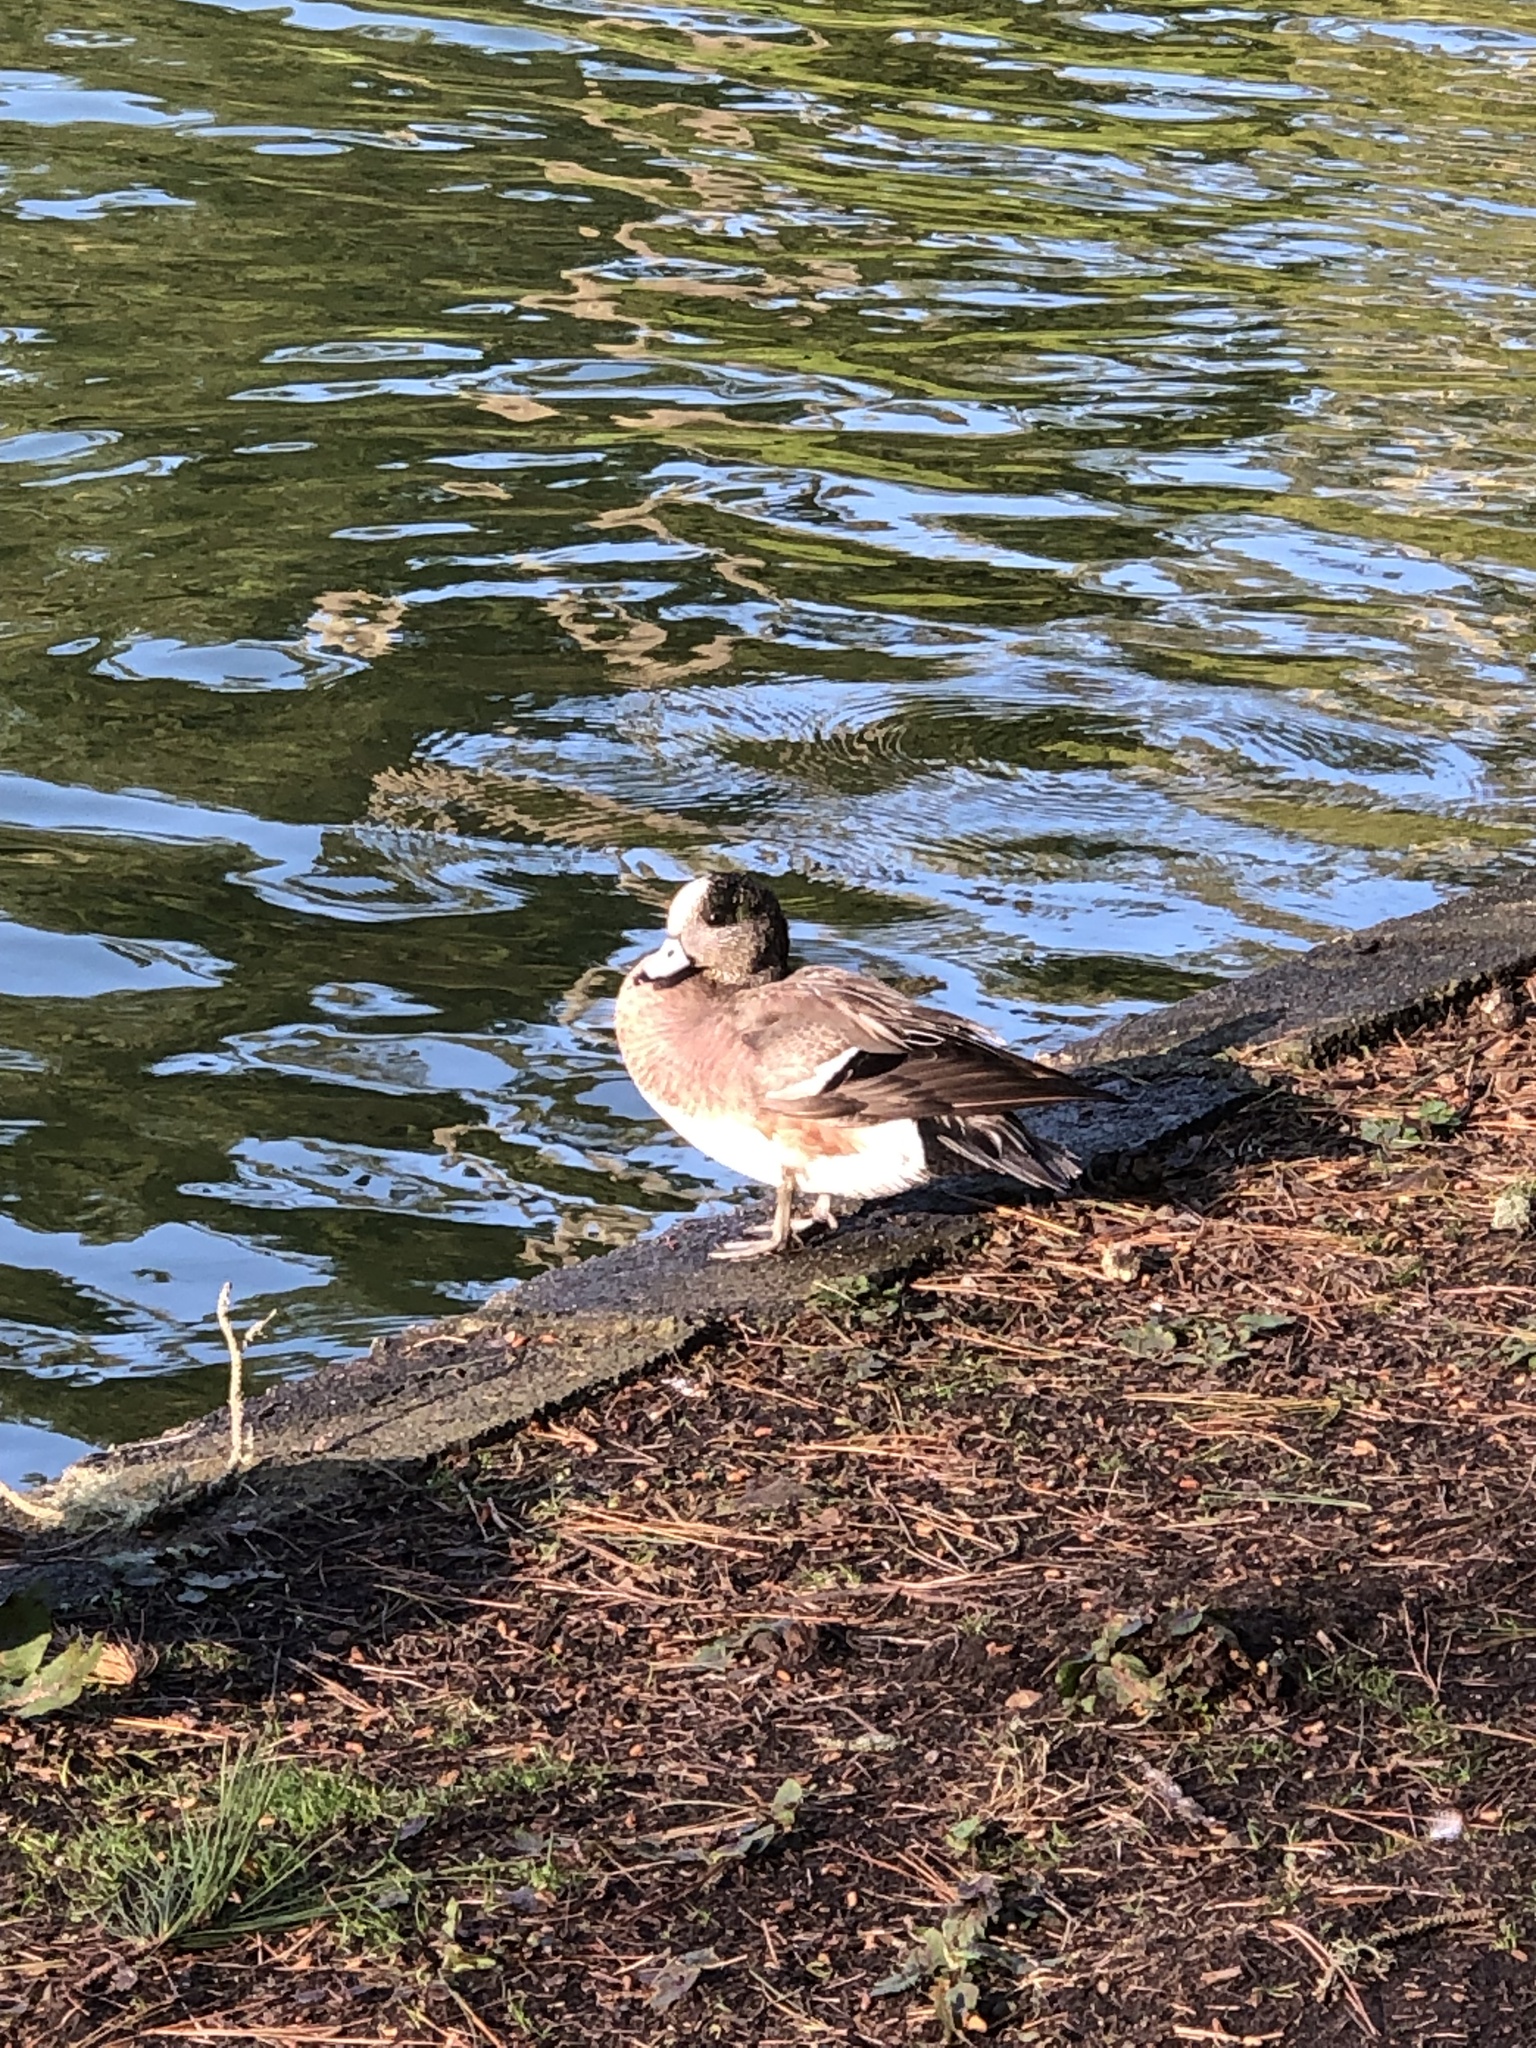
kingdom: Animalia
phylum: Chordata
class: Aves
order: Anseriformes
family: Anatidae
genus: Mareca
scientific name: Mareca americana
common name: American wigeon
